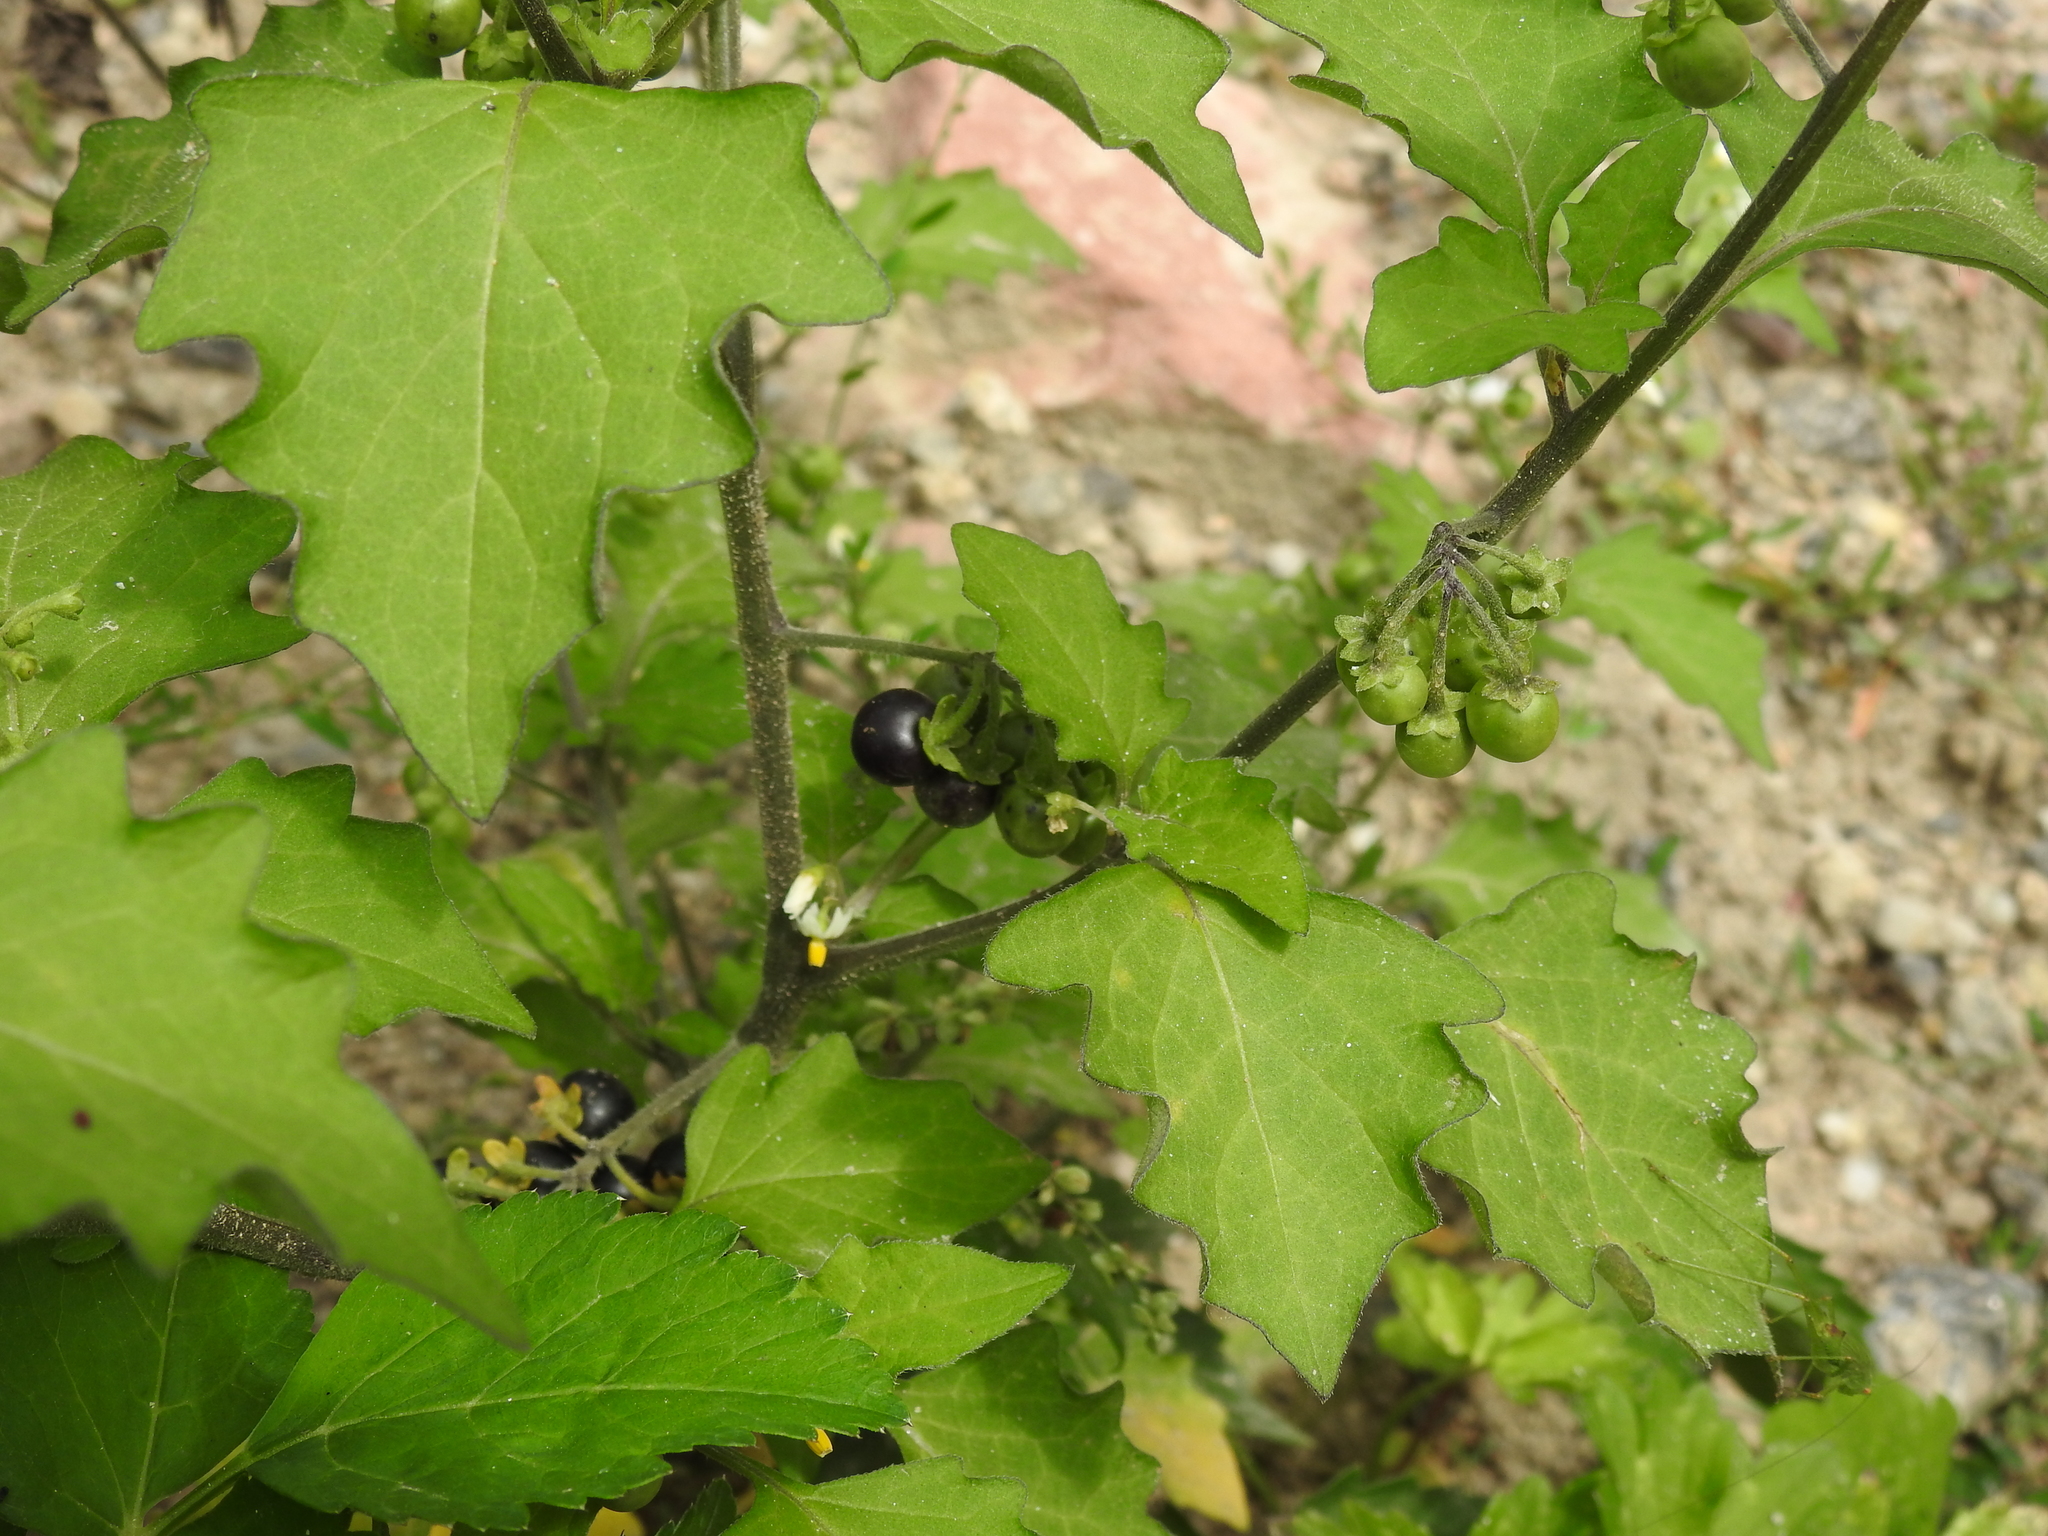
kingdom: Plantae
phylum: Tracheophyta
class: Magnoliopsida
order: Solanales
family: Solanaceae
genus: Solanum
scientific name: Solanum nigrum
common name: Black nightshade
